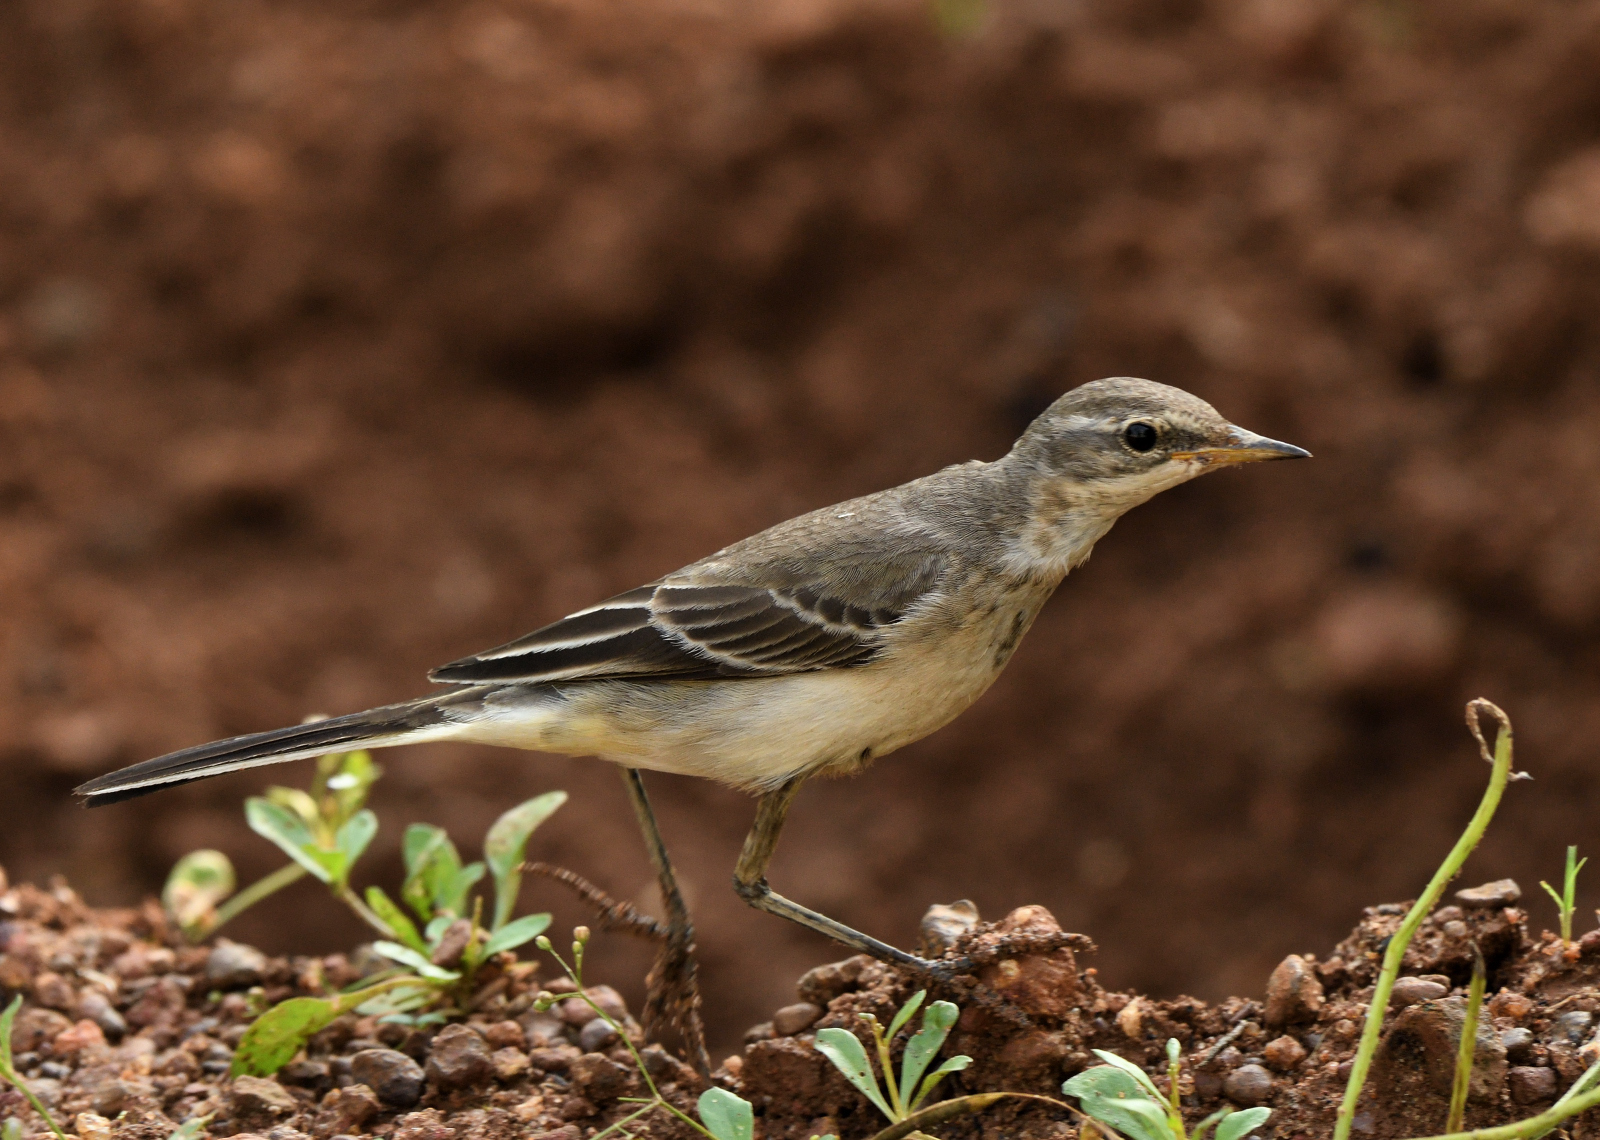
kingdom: Animalia
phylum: Chordata
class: Aves
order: Passeriformes
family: Motacillidae
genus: Motacilla
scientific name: Motacilla flava
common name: Western yellow wagtail
